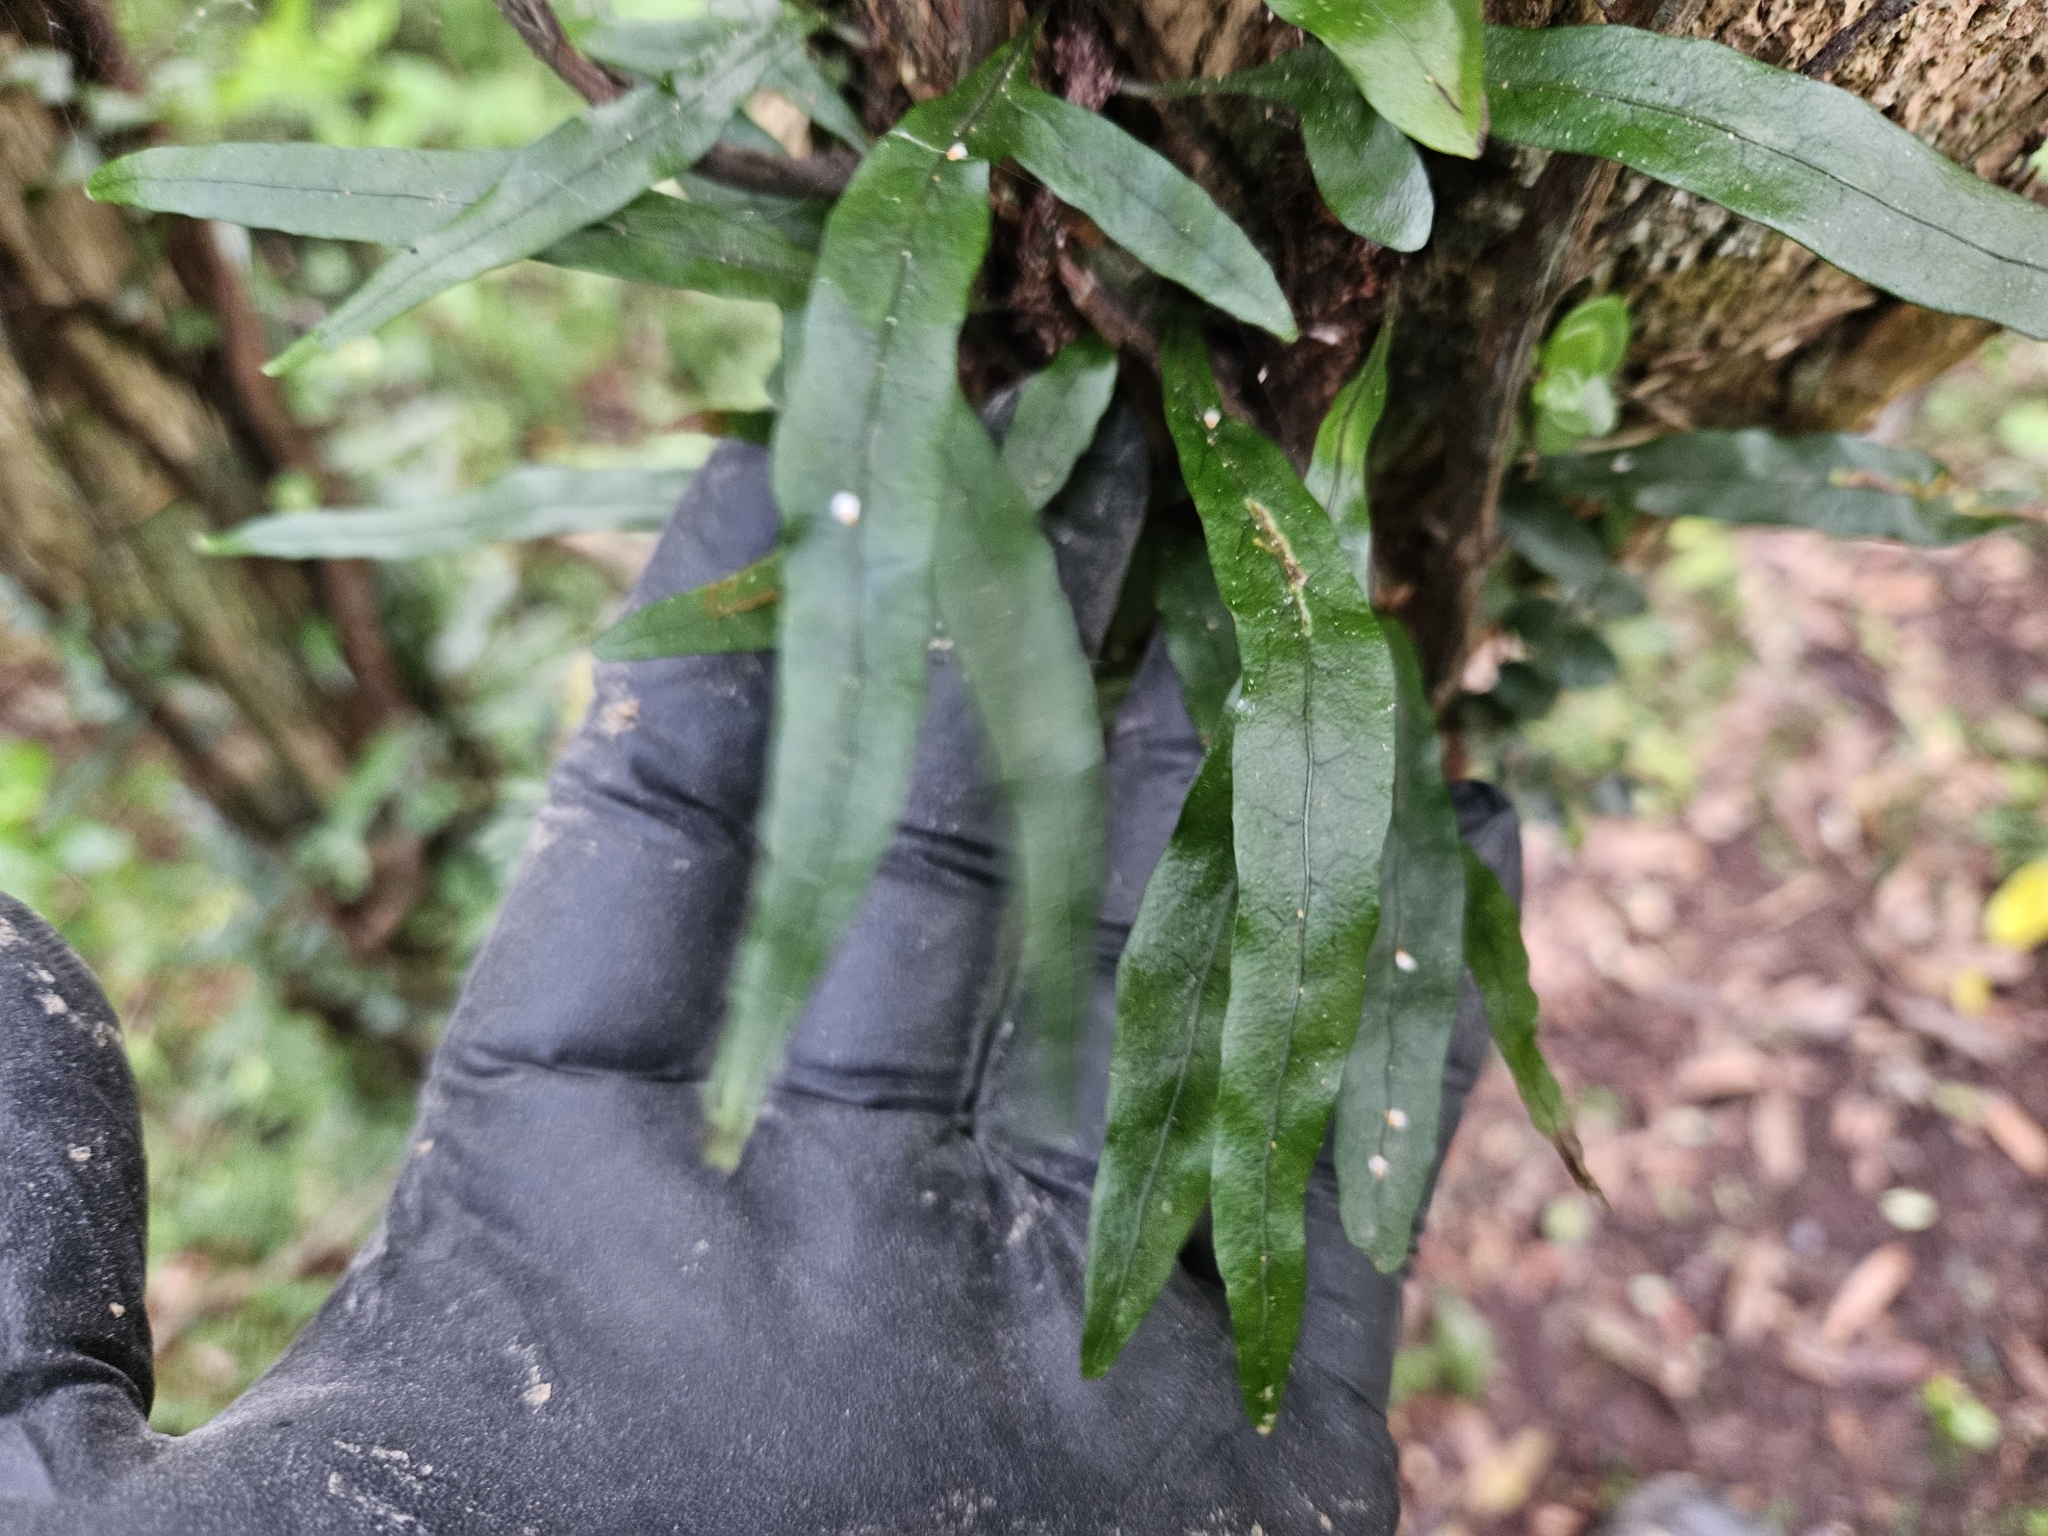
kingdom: Plantae
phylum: Tracheophyta
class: Polypodiopsida
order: Polypodiales
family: Polypodiaceae
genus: Lecanopteris
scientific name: Lecanopteris scandens
